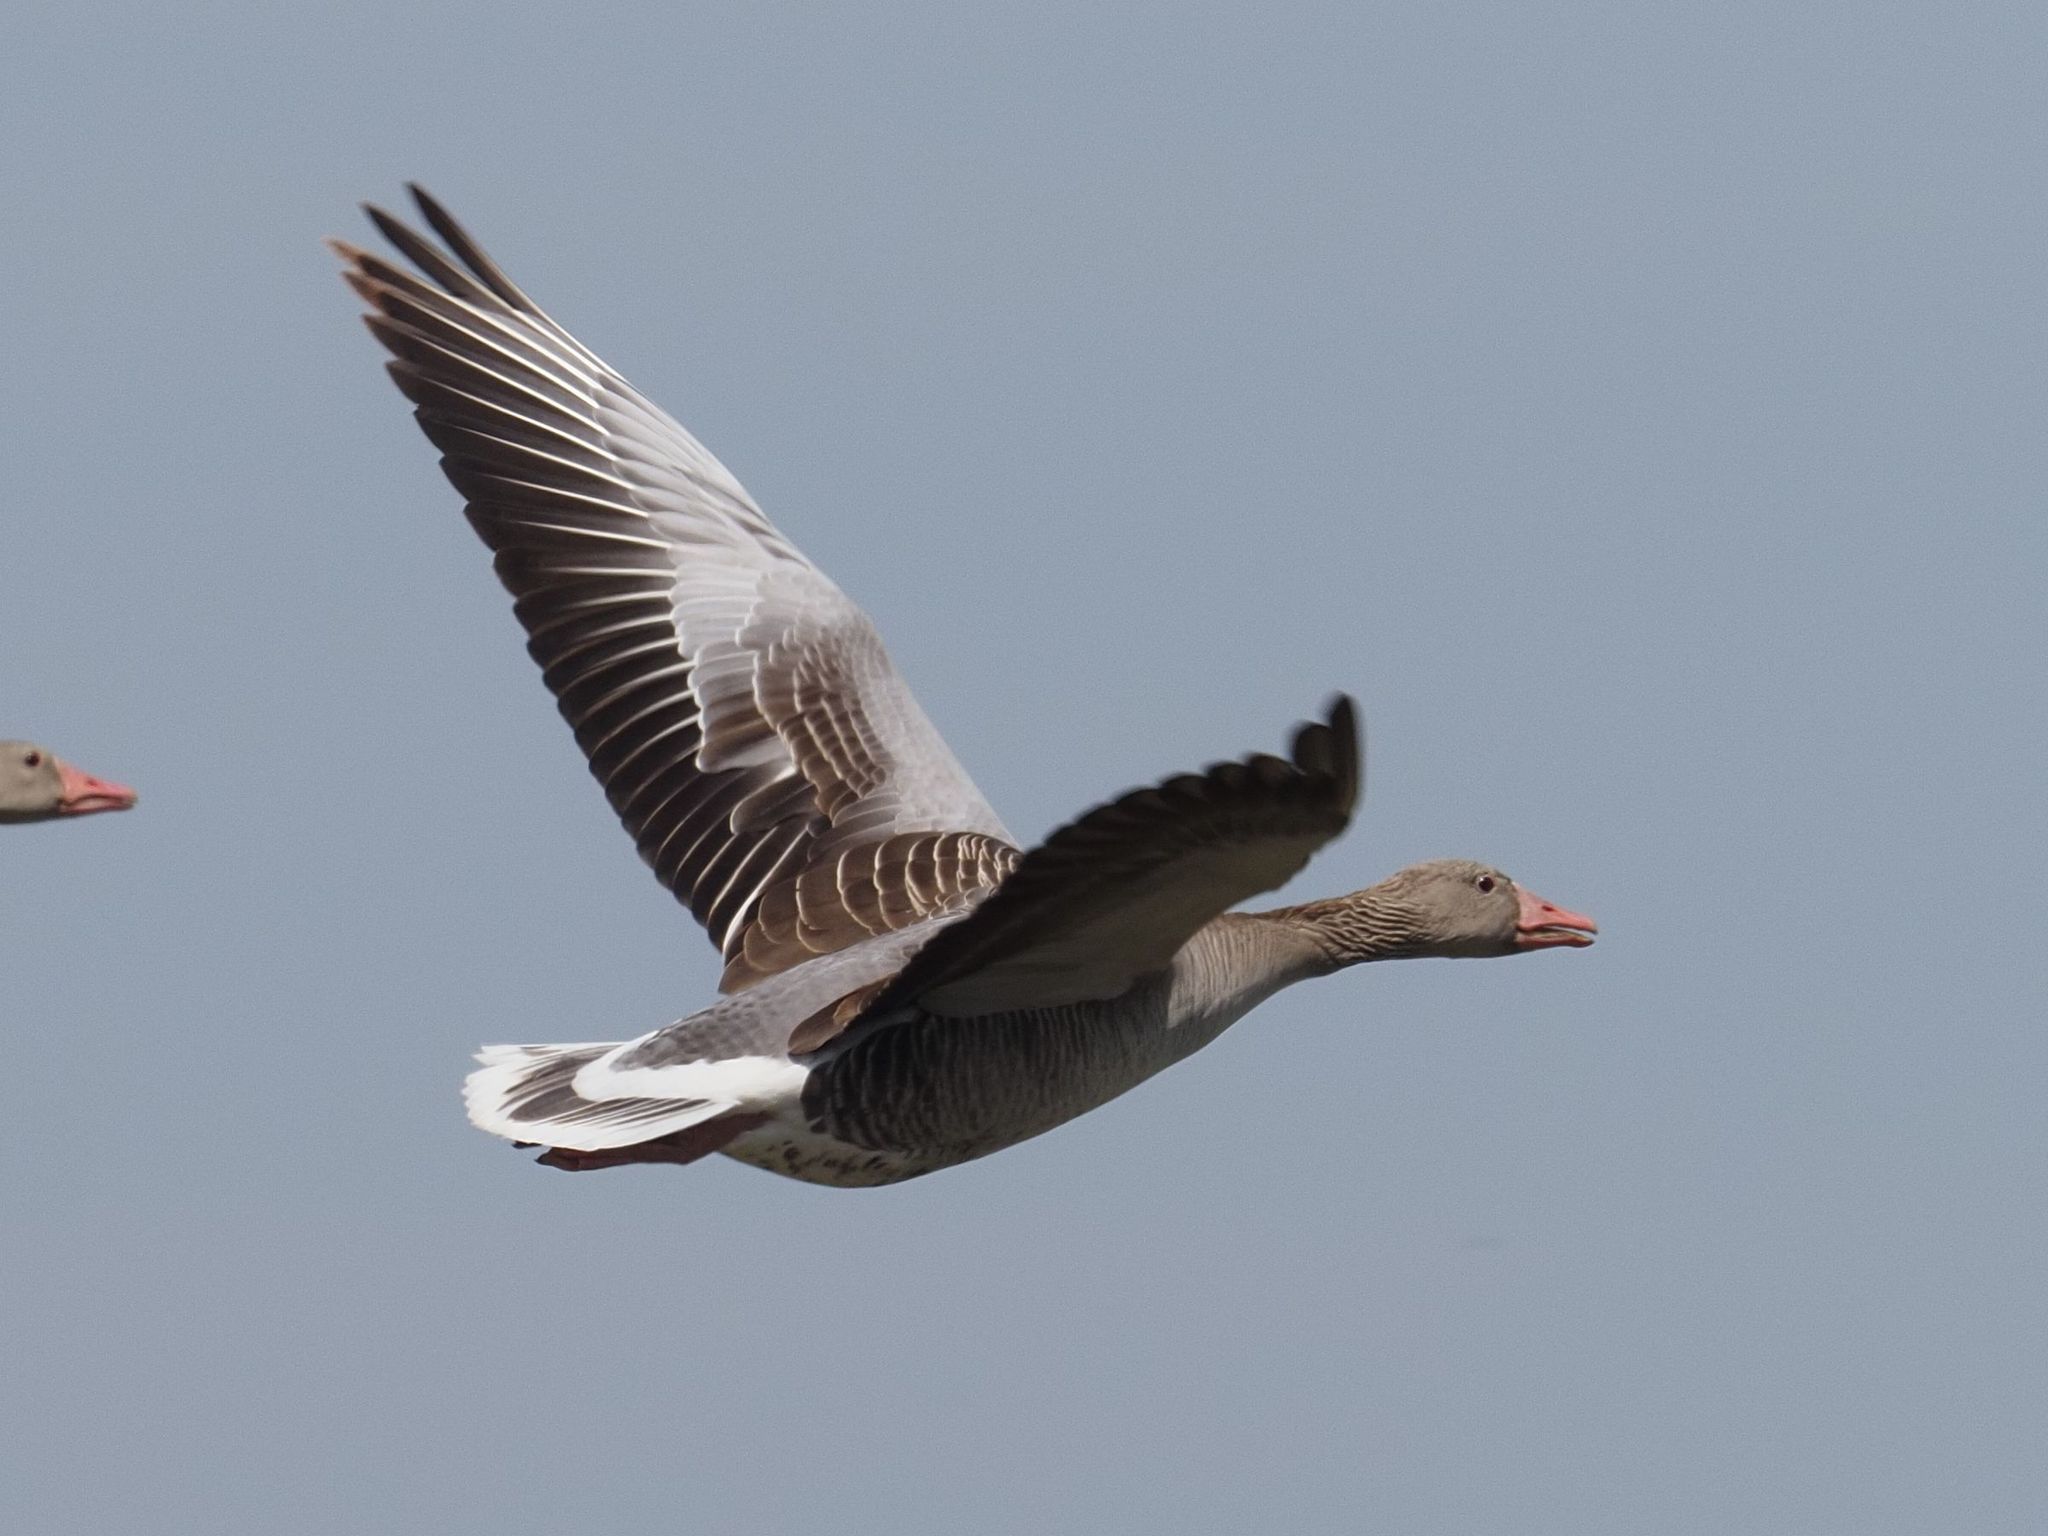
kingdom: Animalia
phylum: Chordata
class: Aves
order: Anseriformes
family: Anatidae
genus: Anser
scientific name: Anser anser
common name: Greylag goose
